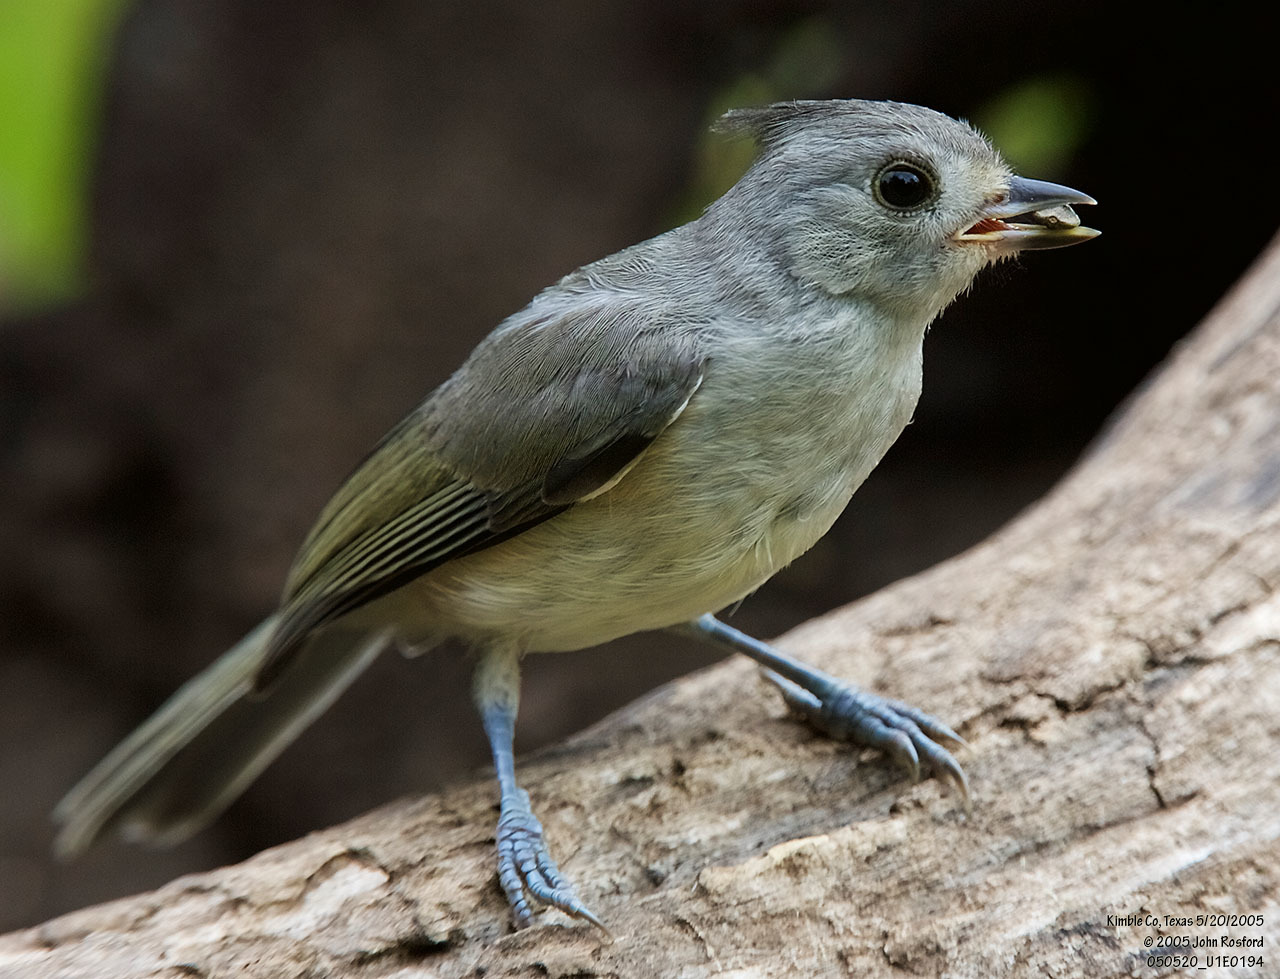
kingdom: Animalia
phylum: Chordata
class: Aves
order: Passeriformes
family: Paridae
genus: Baeolophus
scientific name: Baeolophus atricristatus
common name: Black-crested titmouse
